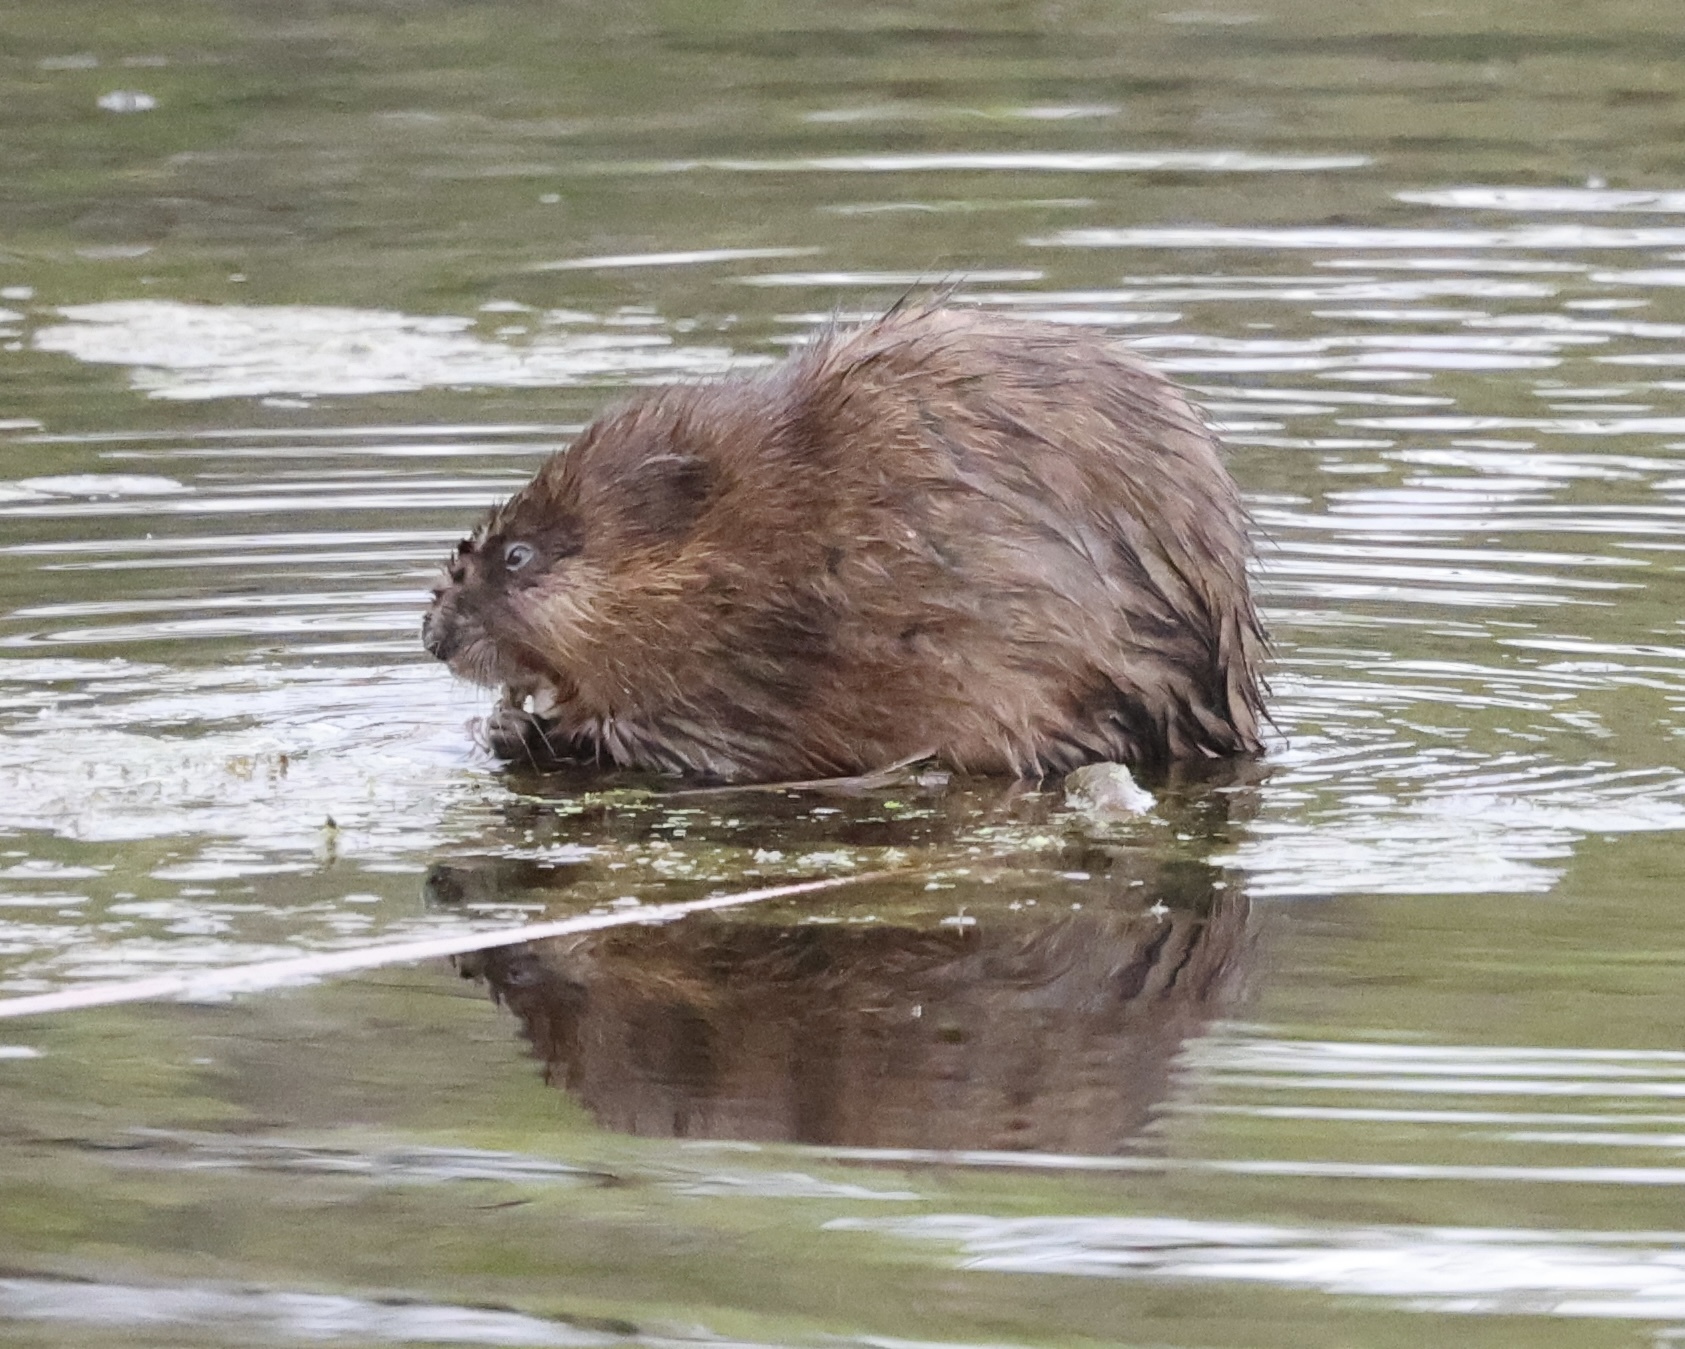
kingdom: Animalia
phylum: Chordata
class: Mammalia
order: Rodentia
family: Cricetidae
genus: Ondatra
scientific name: Ondatra zibethicus
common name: Muskrat
